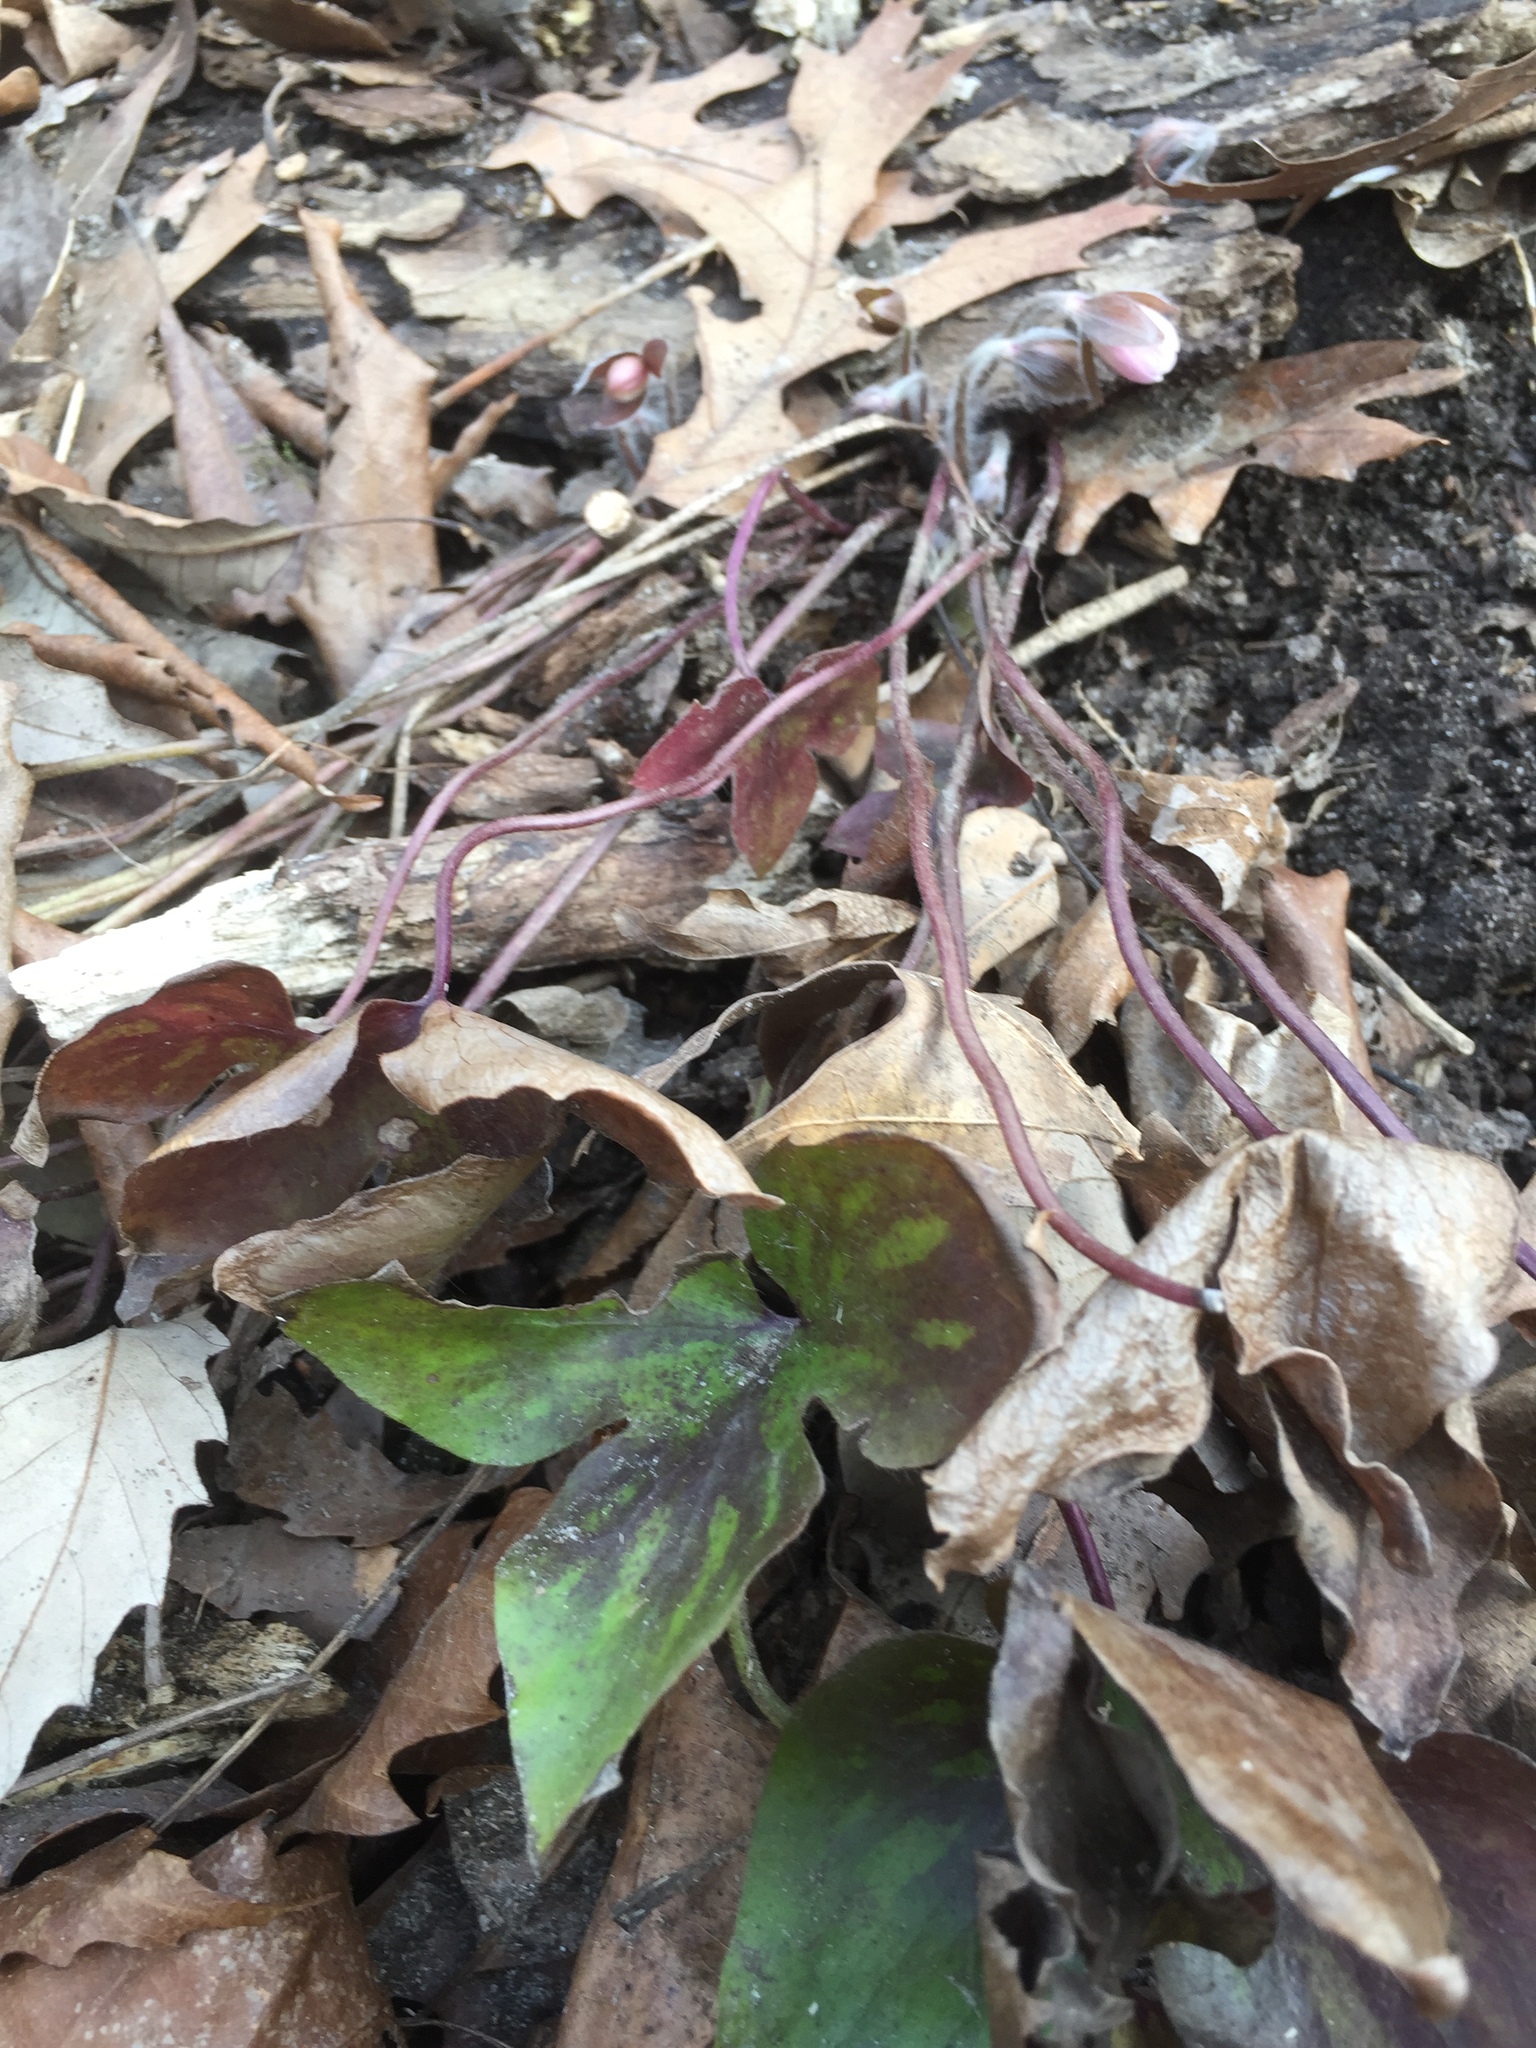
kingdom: Plantae
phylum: Tracheophyta
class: Magnoliopsida
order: Ranunculales
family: Ranunculaceae
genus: Hepatica
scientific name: Hepatica acutiloba
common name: Sharp-lobed hepatica
